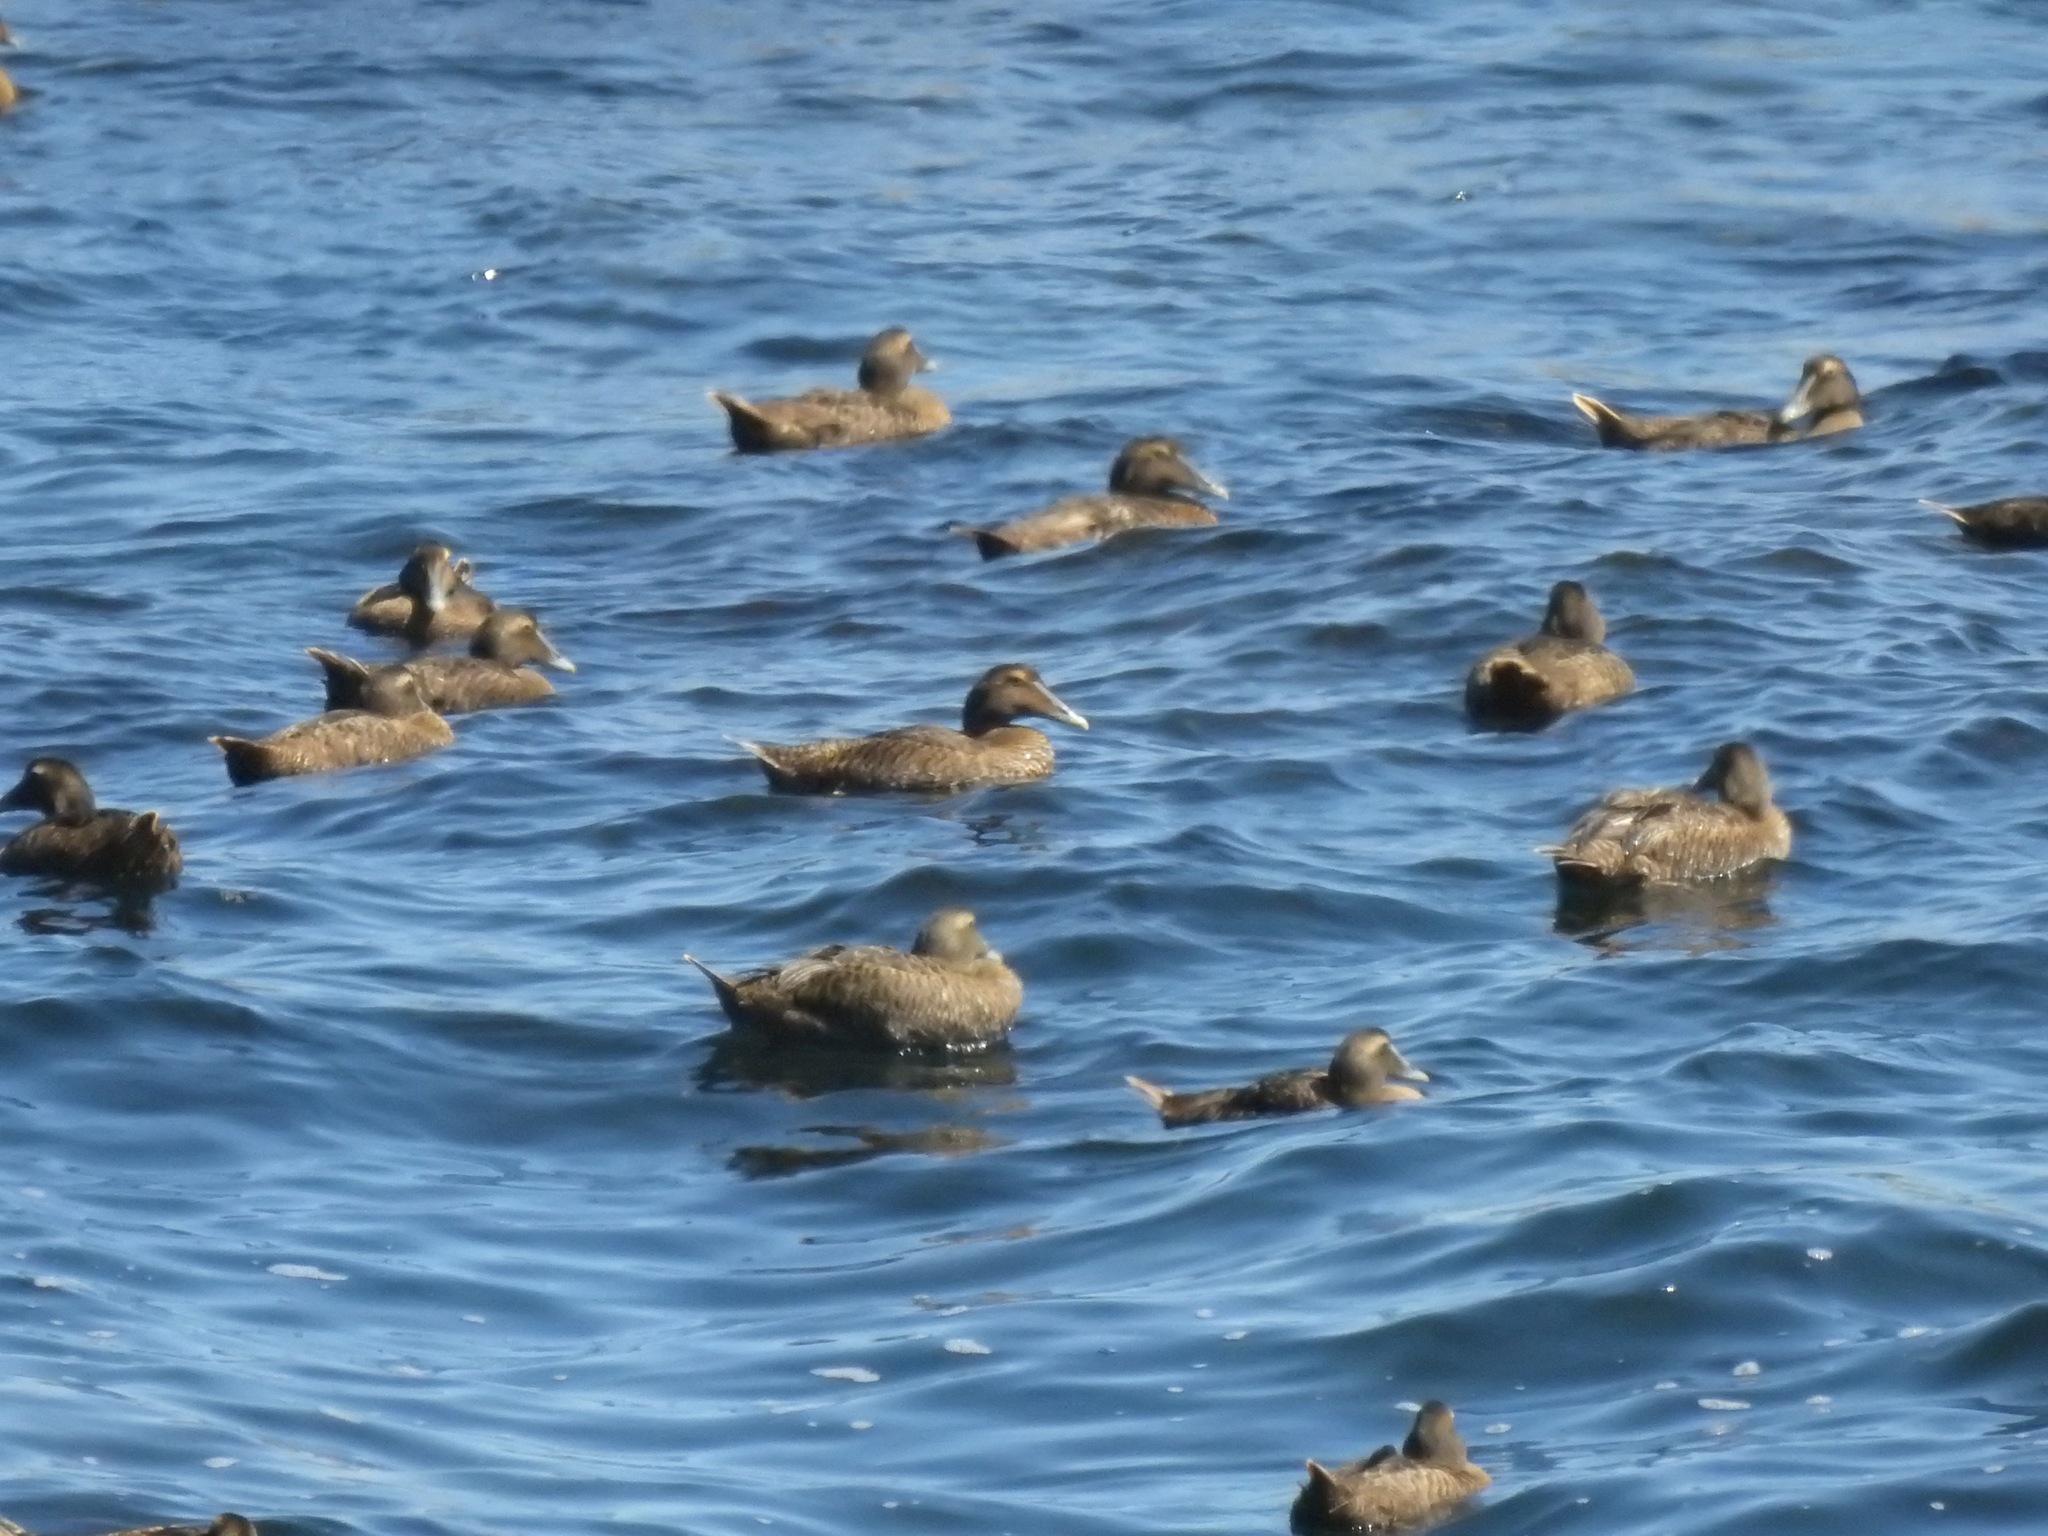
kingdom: Animalia
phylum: Chordata
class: Aves
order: Anseriformes
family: Anatidae
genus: Somateria
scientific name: Somateria mollissima
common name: Common eider
